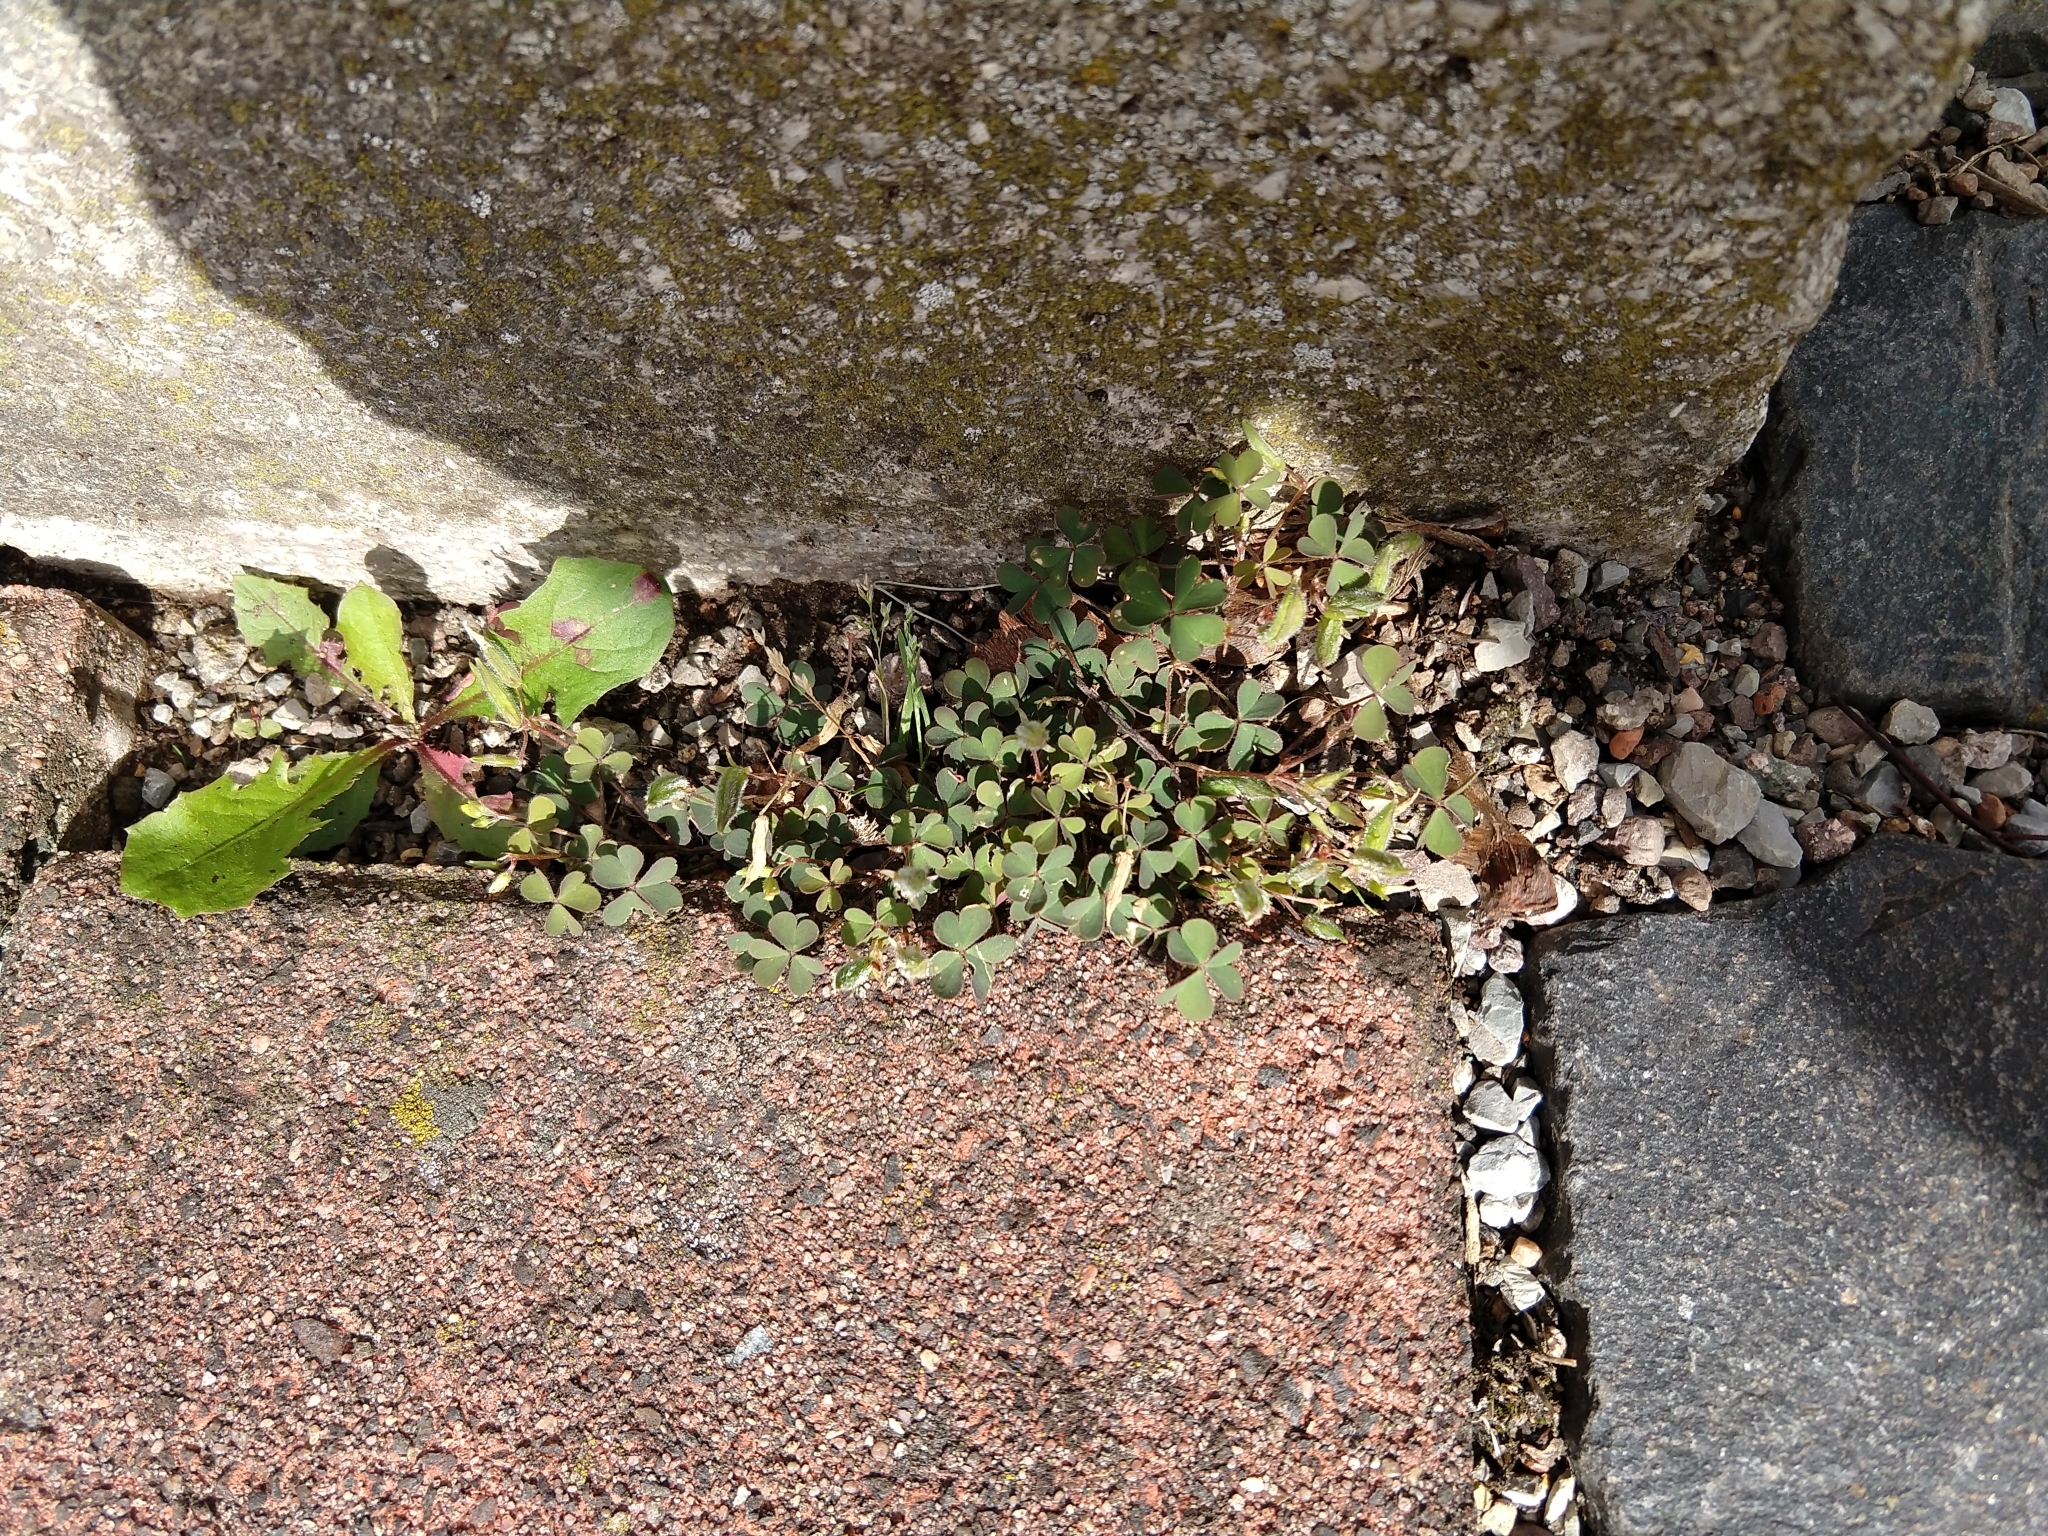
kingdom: Plantae
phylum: Tracheophyta
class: Magnoliopsida
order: Oxalidales
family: Oxalidaceae
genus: Oxalis
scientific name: Oxalis corniculata
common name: Procumbent yellow-sorrel
